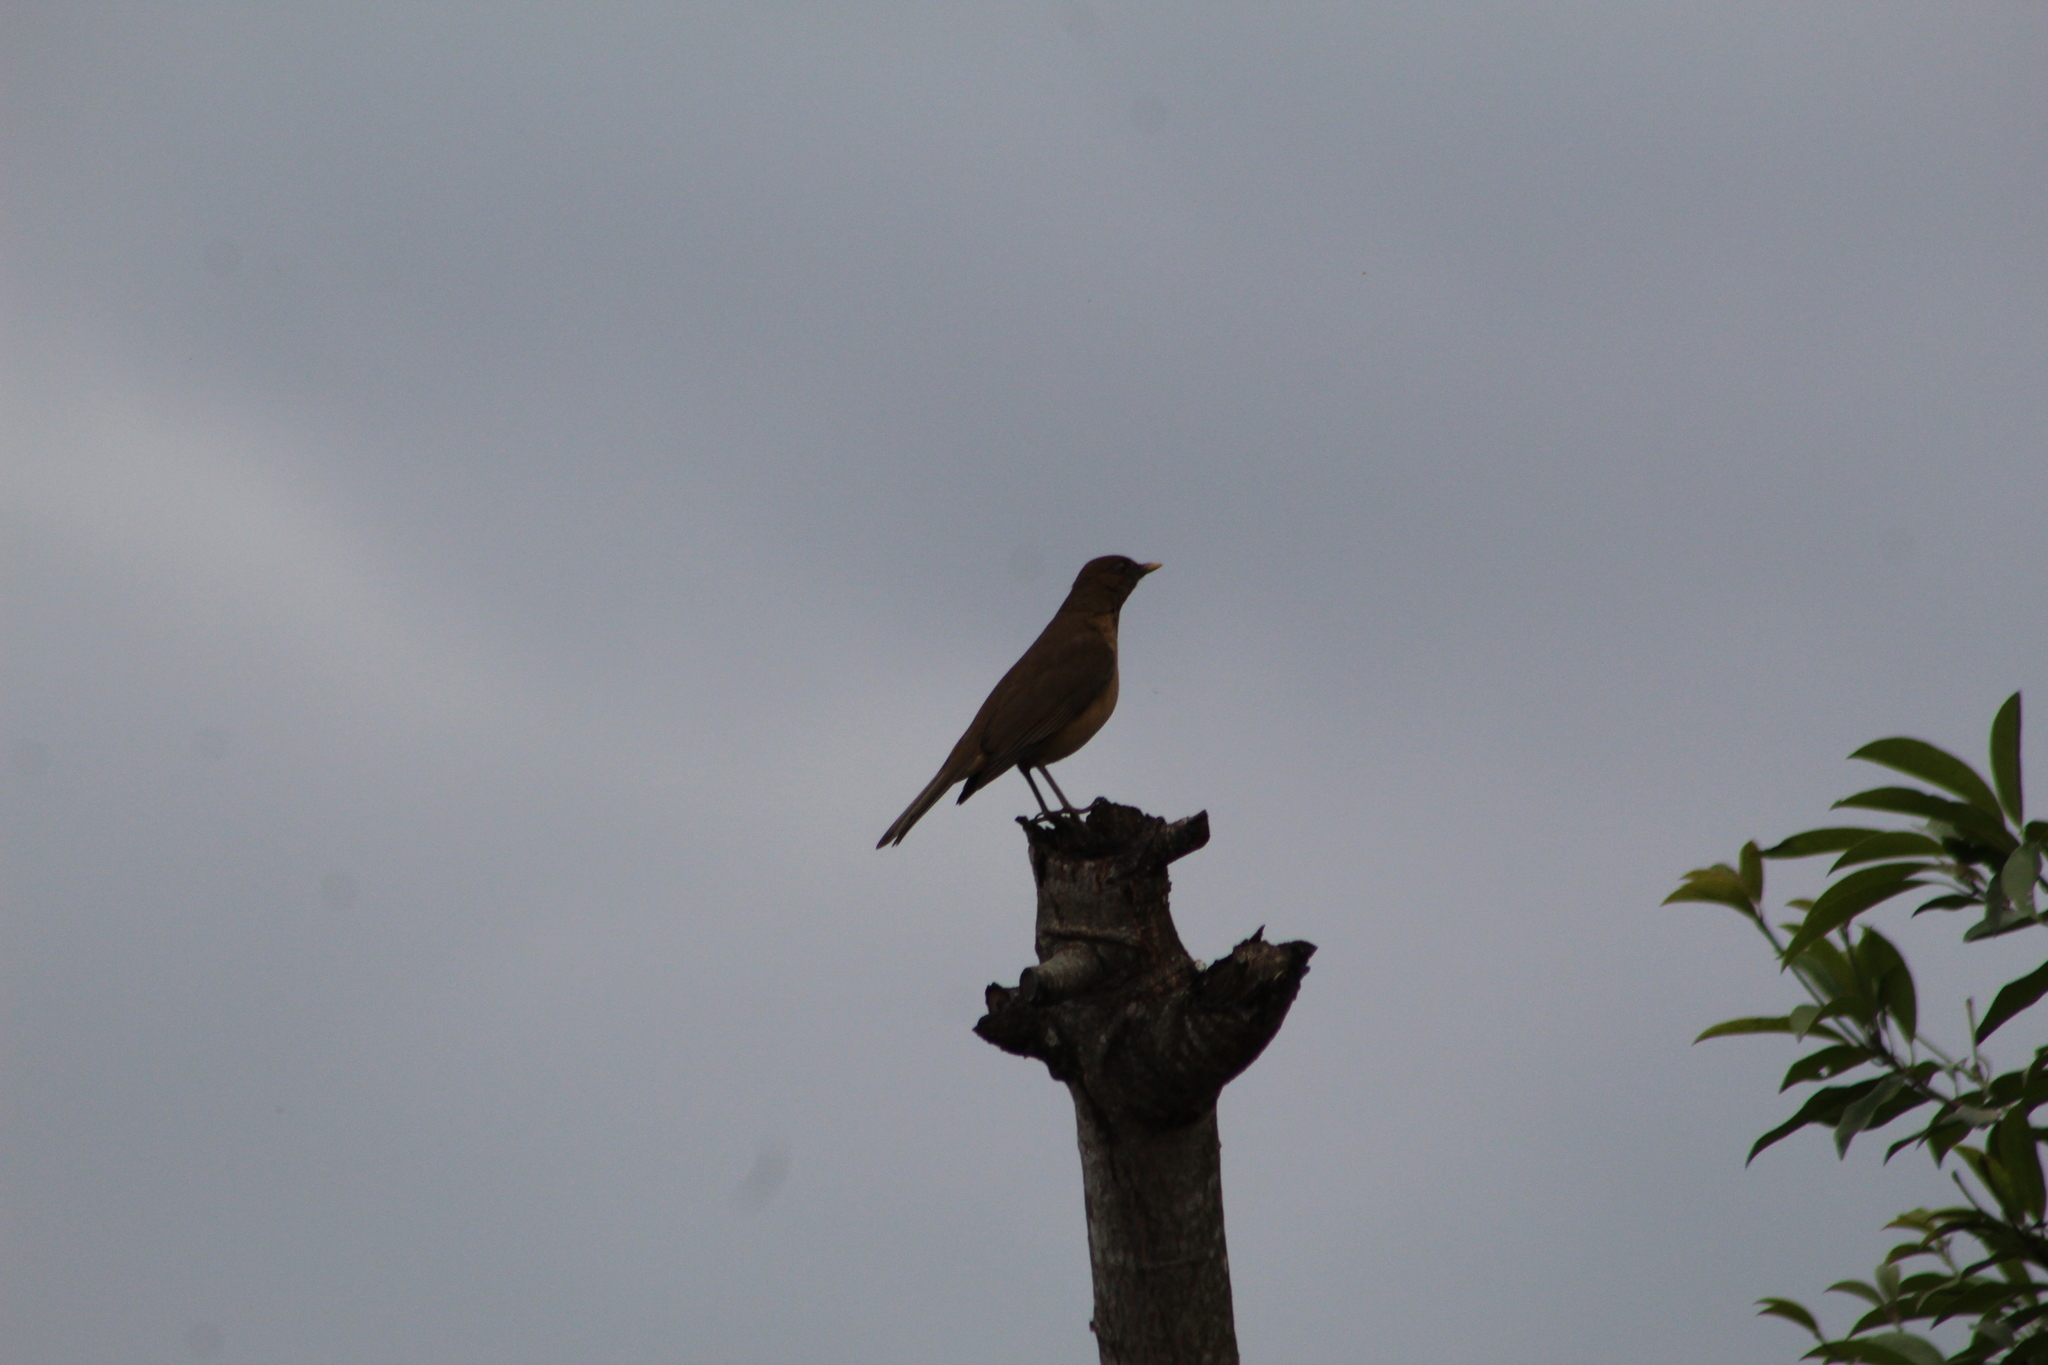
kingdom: Animalia
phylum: Chordata
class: Aves
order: Passeriformes
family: Turdidae
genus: Turdus
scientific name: Turdus grayi
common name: Clay-colored thrush
